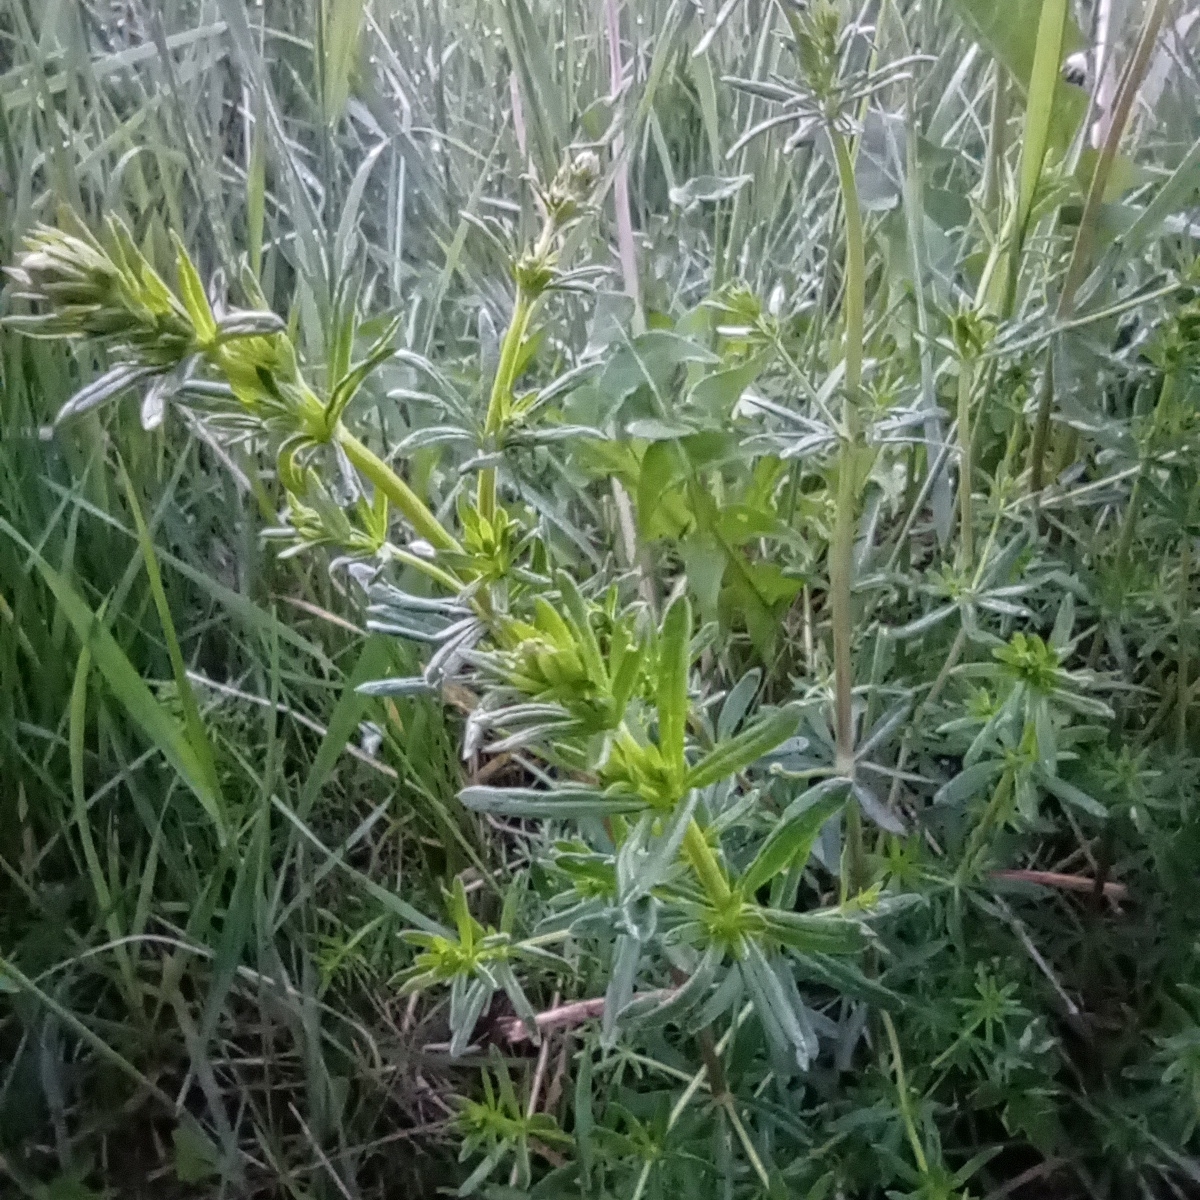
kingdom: Plantae
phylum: Tracheophyta
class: Magnoliopsida
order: Gentianales
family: Rubiaceae
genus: Galium
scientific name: Galium mollugo
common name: Hedge bedstraw
